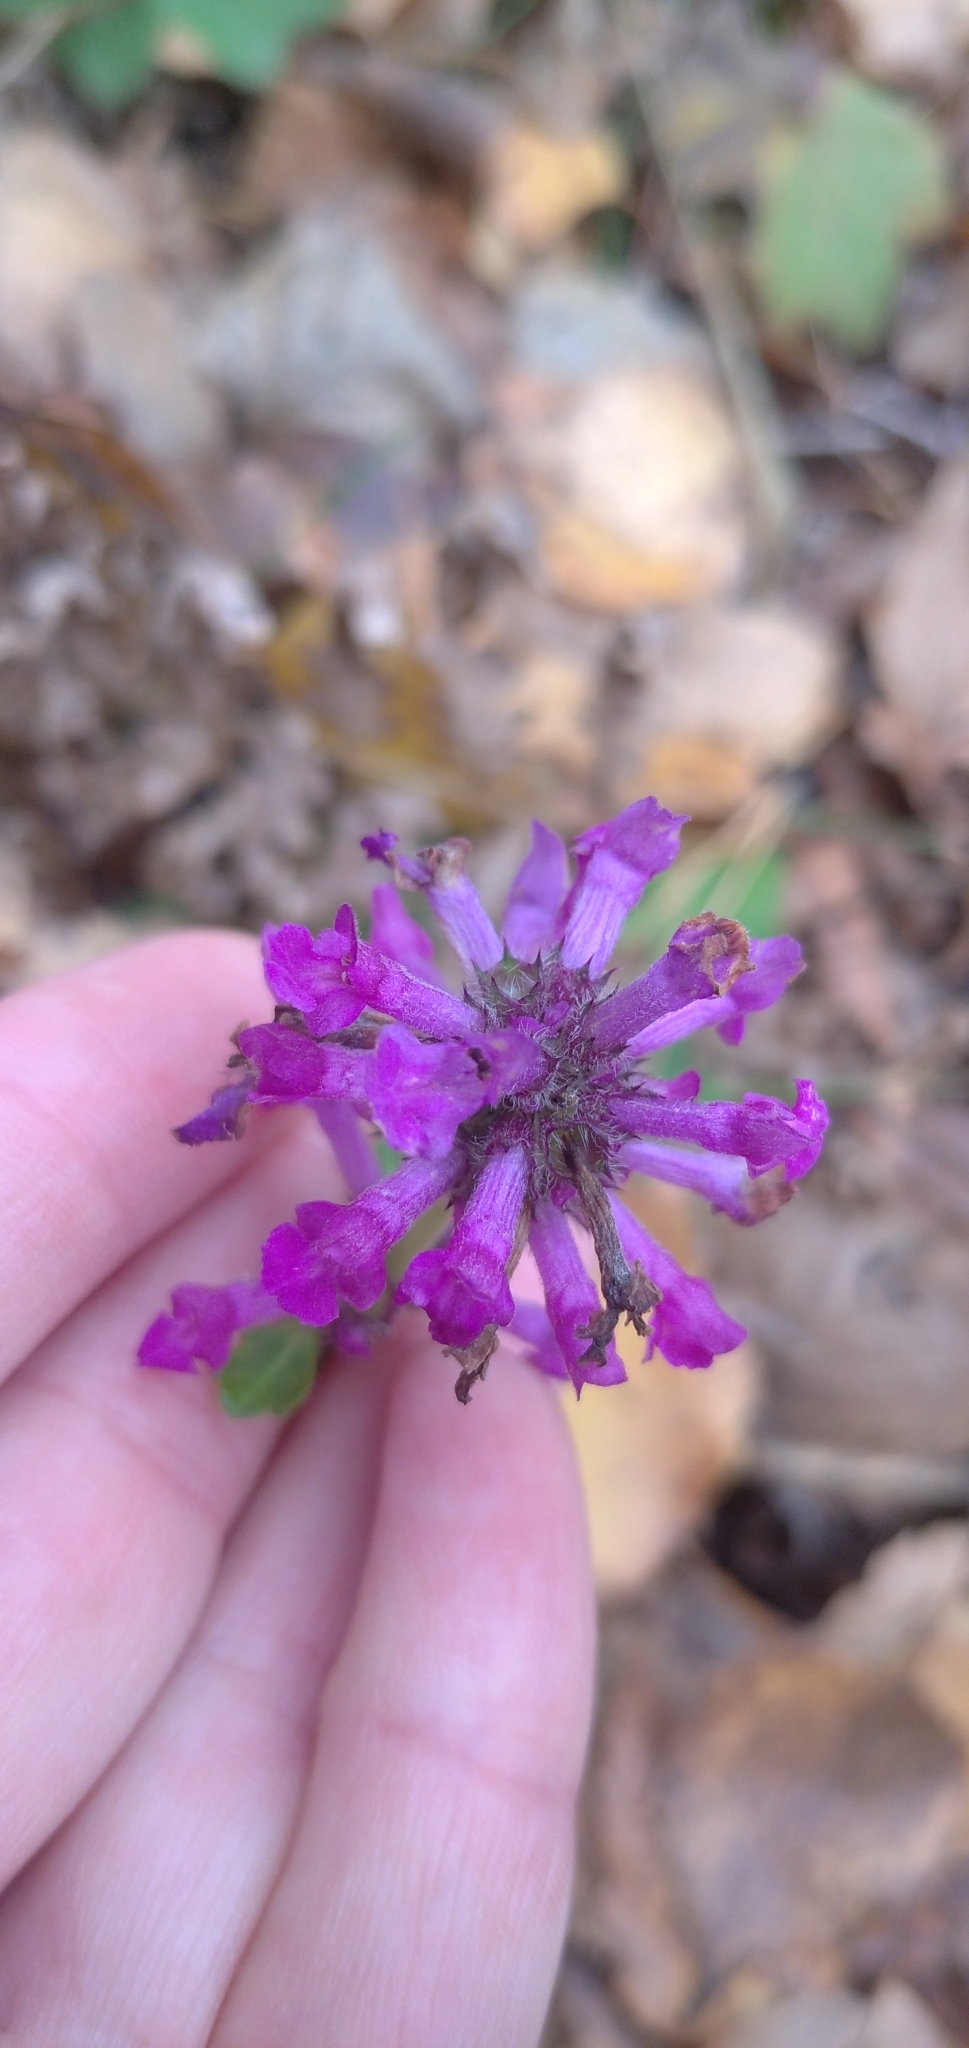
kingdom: Plantae
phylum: Tracheophyta
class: Magnoliopsida
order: Lamiales
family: Lamiaceae
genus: Betonica
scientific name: Betonica officinalis
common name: Bishop's-wort
